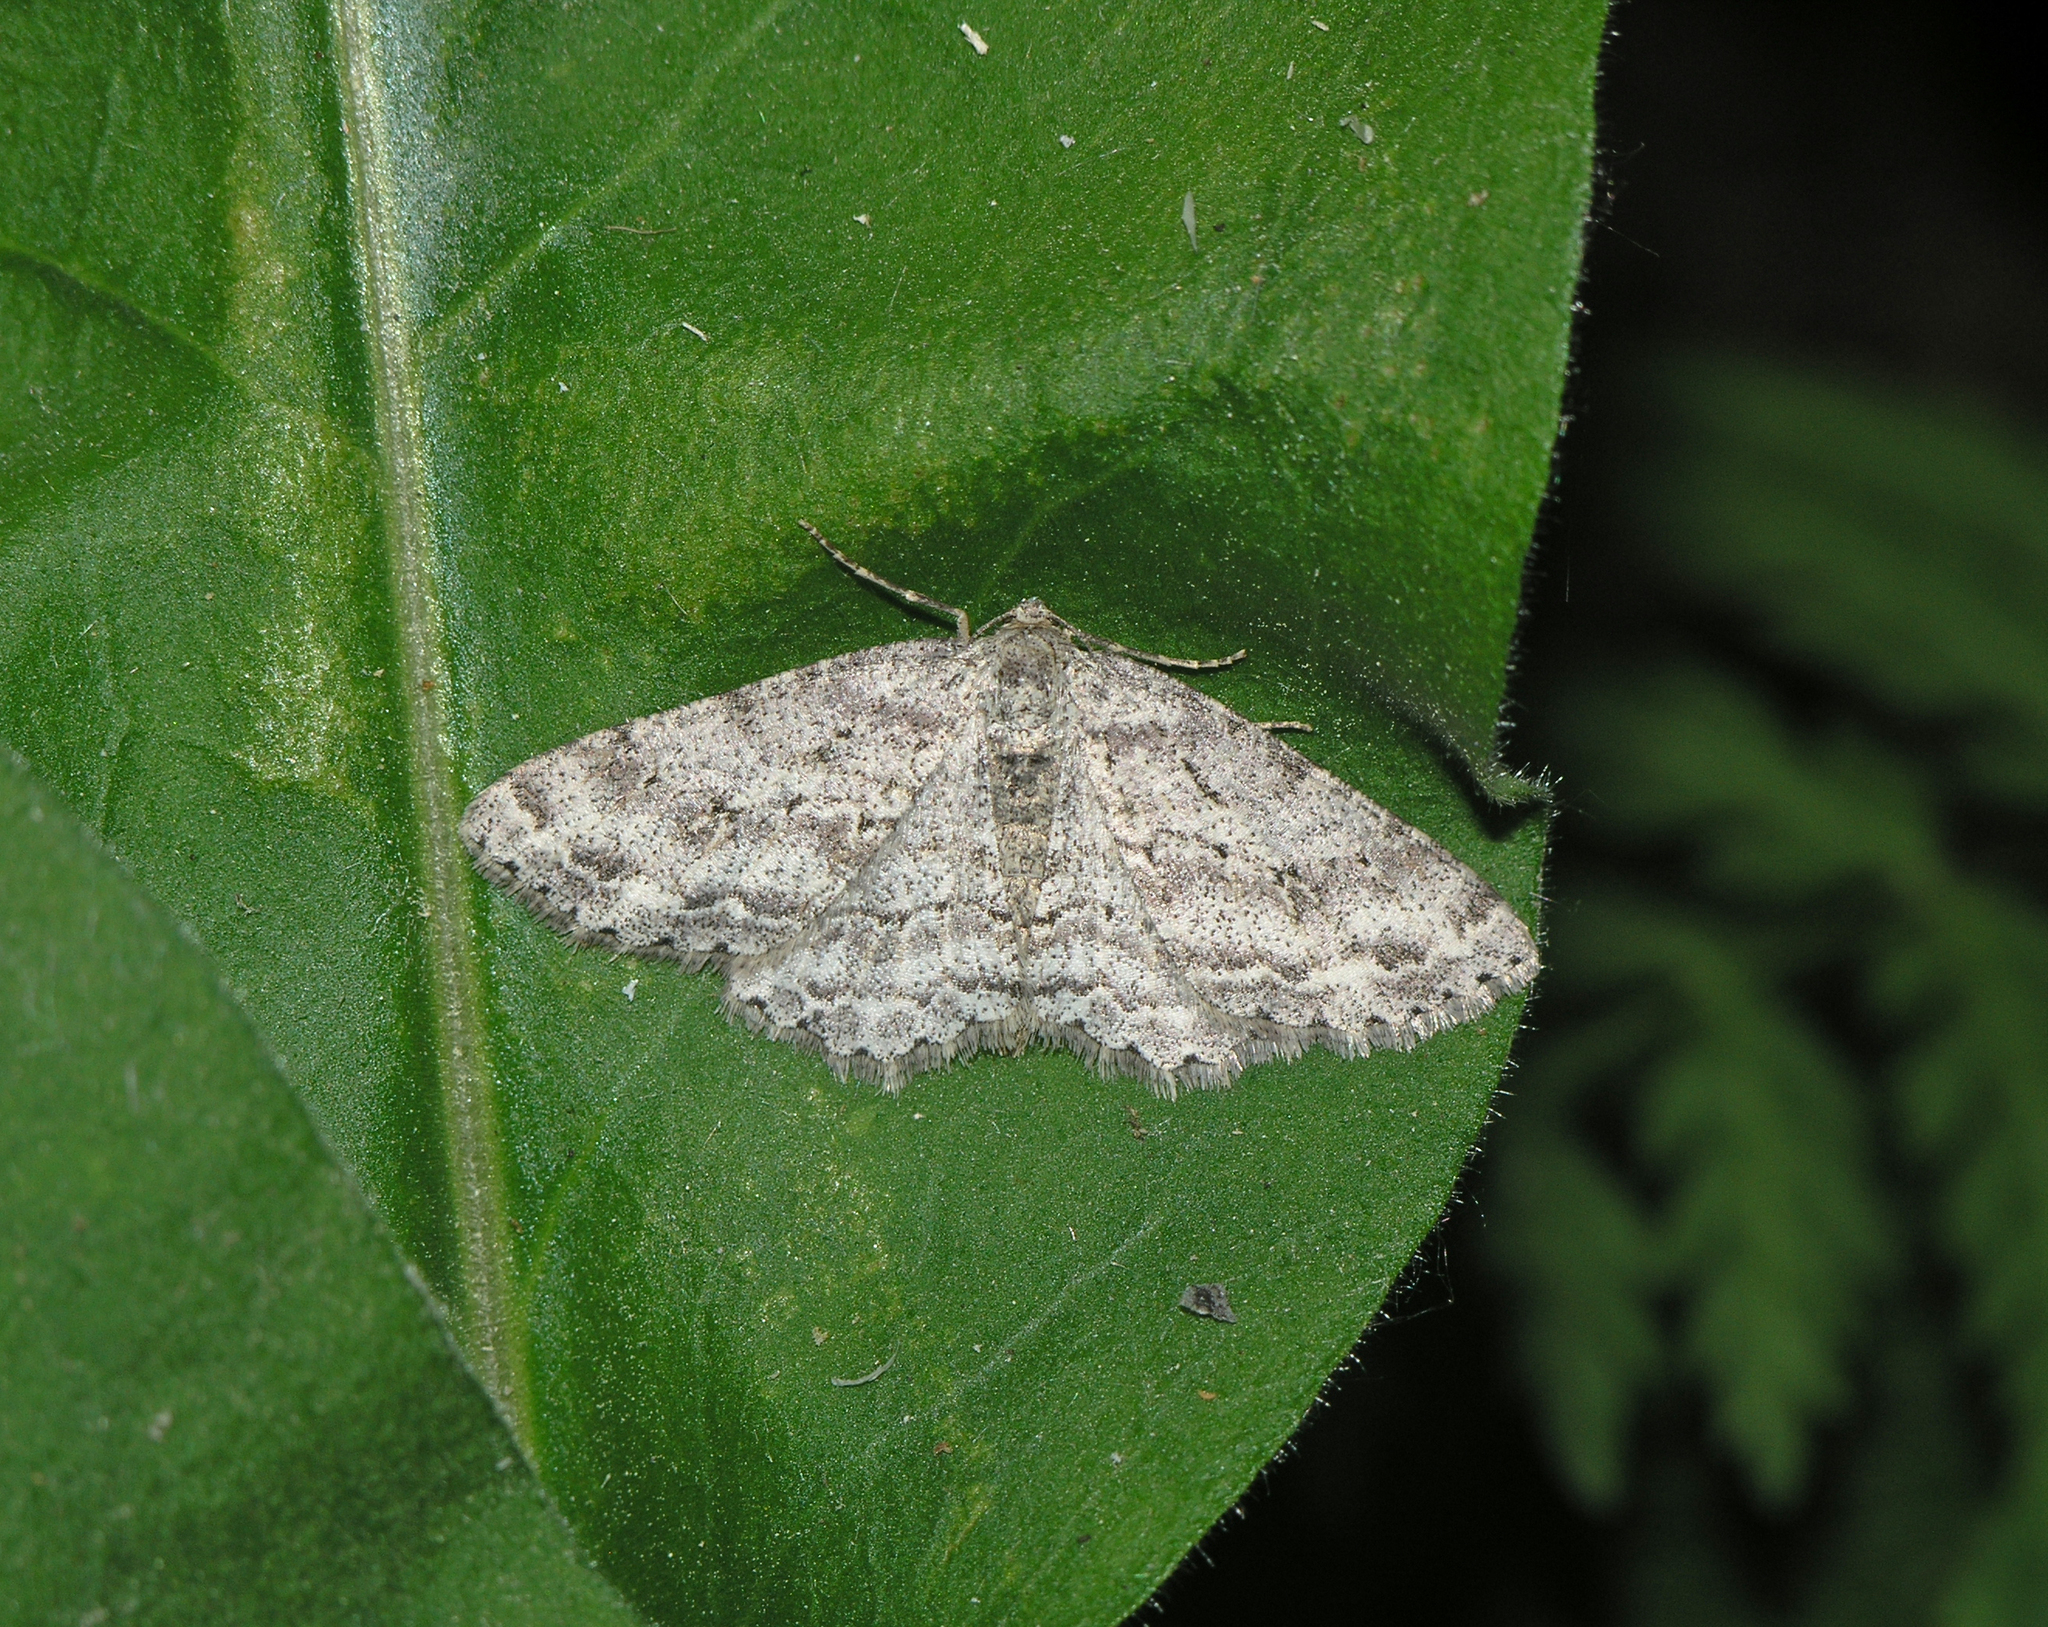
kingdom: Animalia
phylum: Arthropoda
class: Insecta
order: Lepidoptera
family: Geometridae
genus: Ectropis
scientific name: Ectropis crepuscularia
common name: Engrailed
